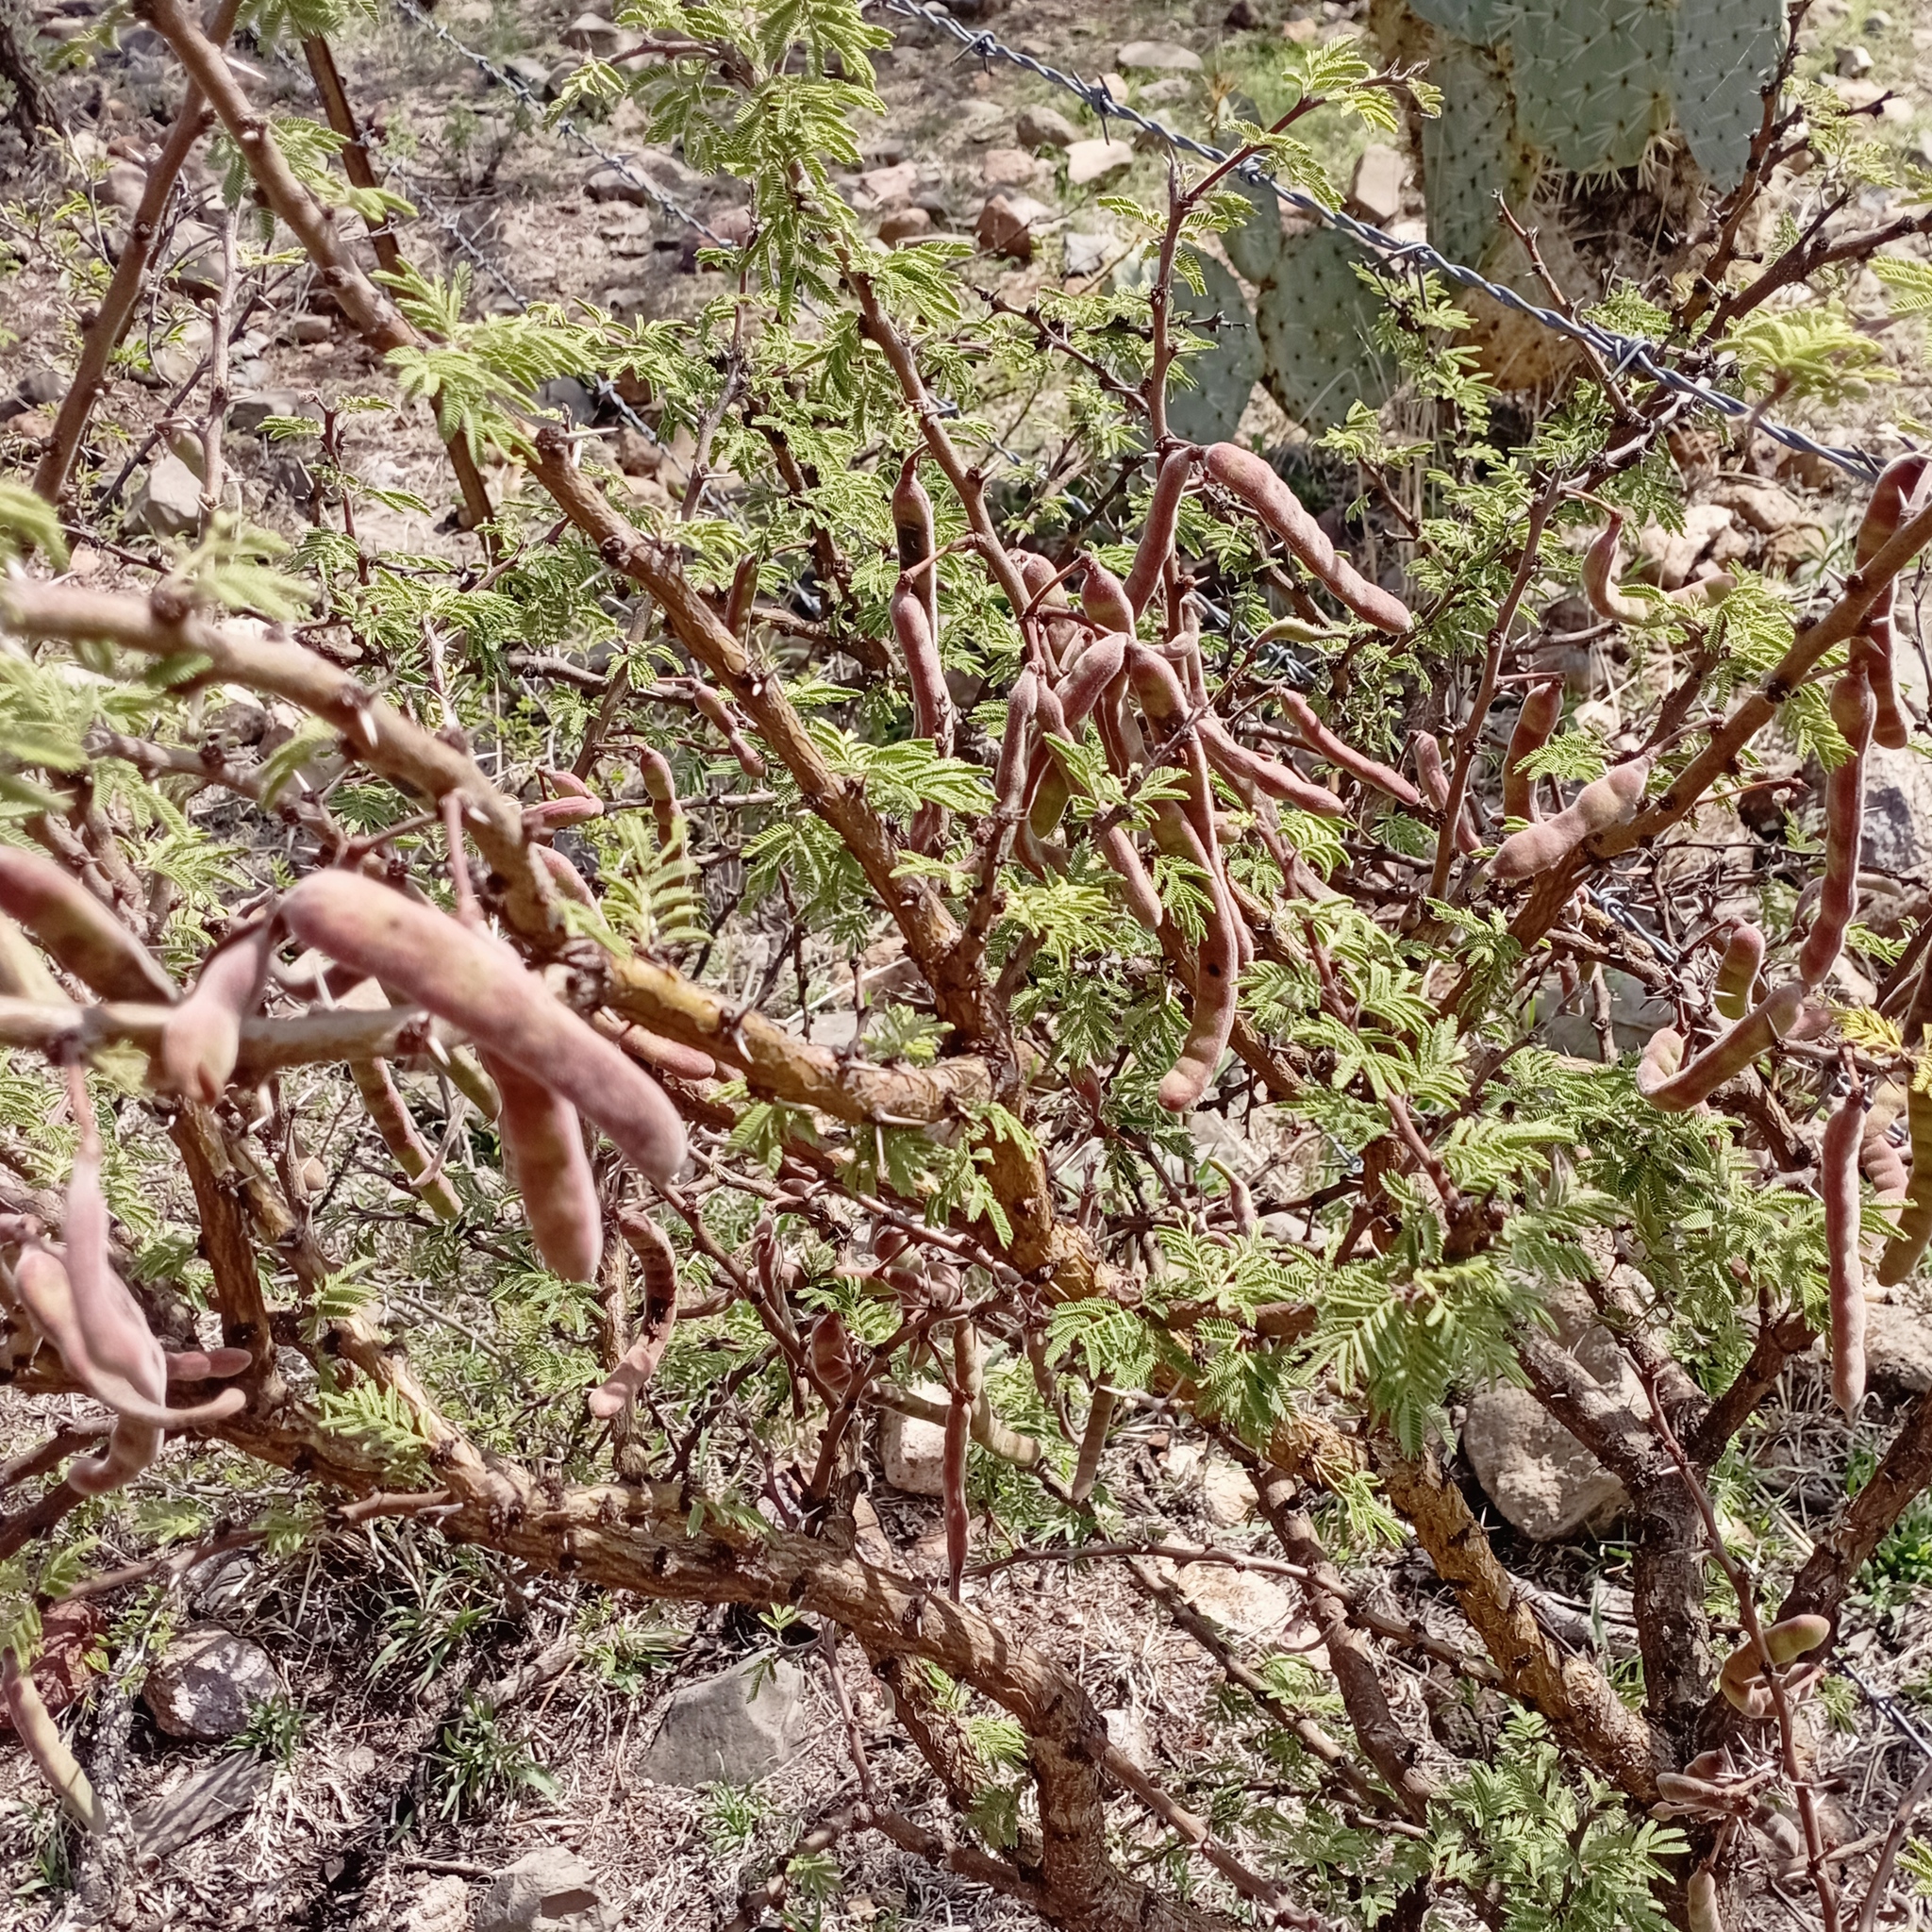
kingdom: Plantae
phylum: Tracheophyta
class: Magnoliopsida
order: Fabales
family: Fabaceae
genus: Vachellia
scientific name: Vachellia schaffneri
